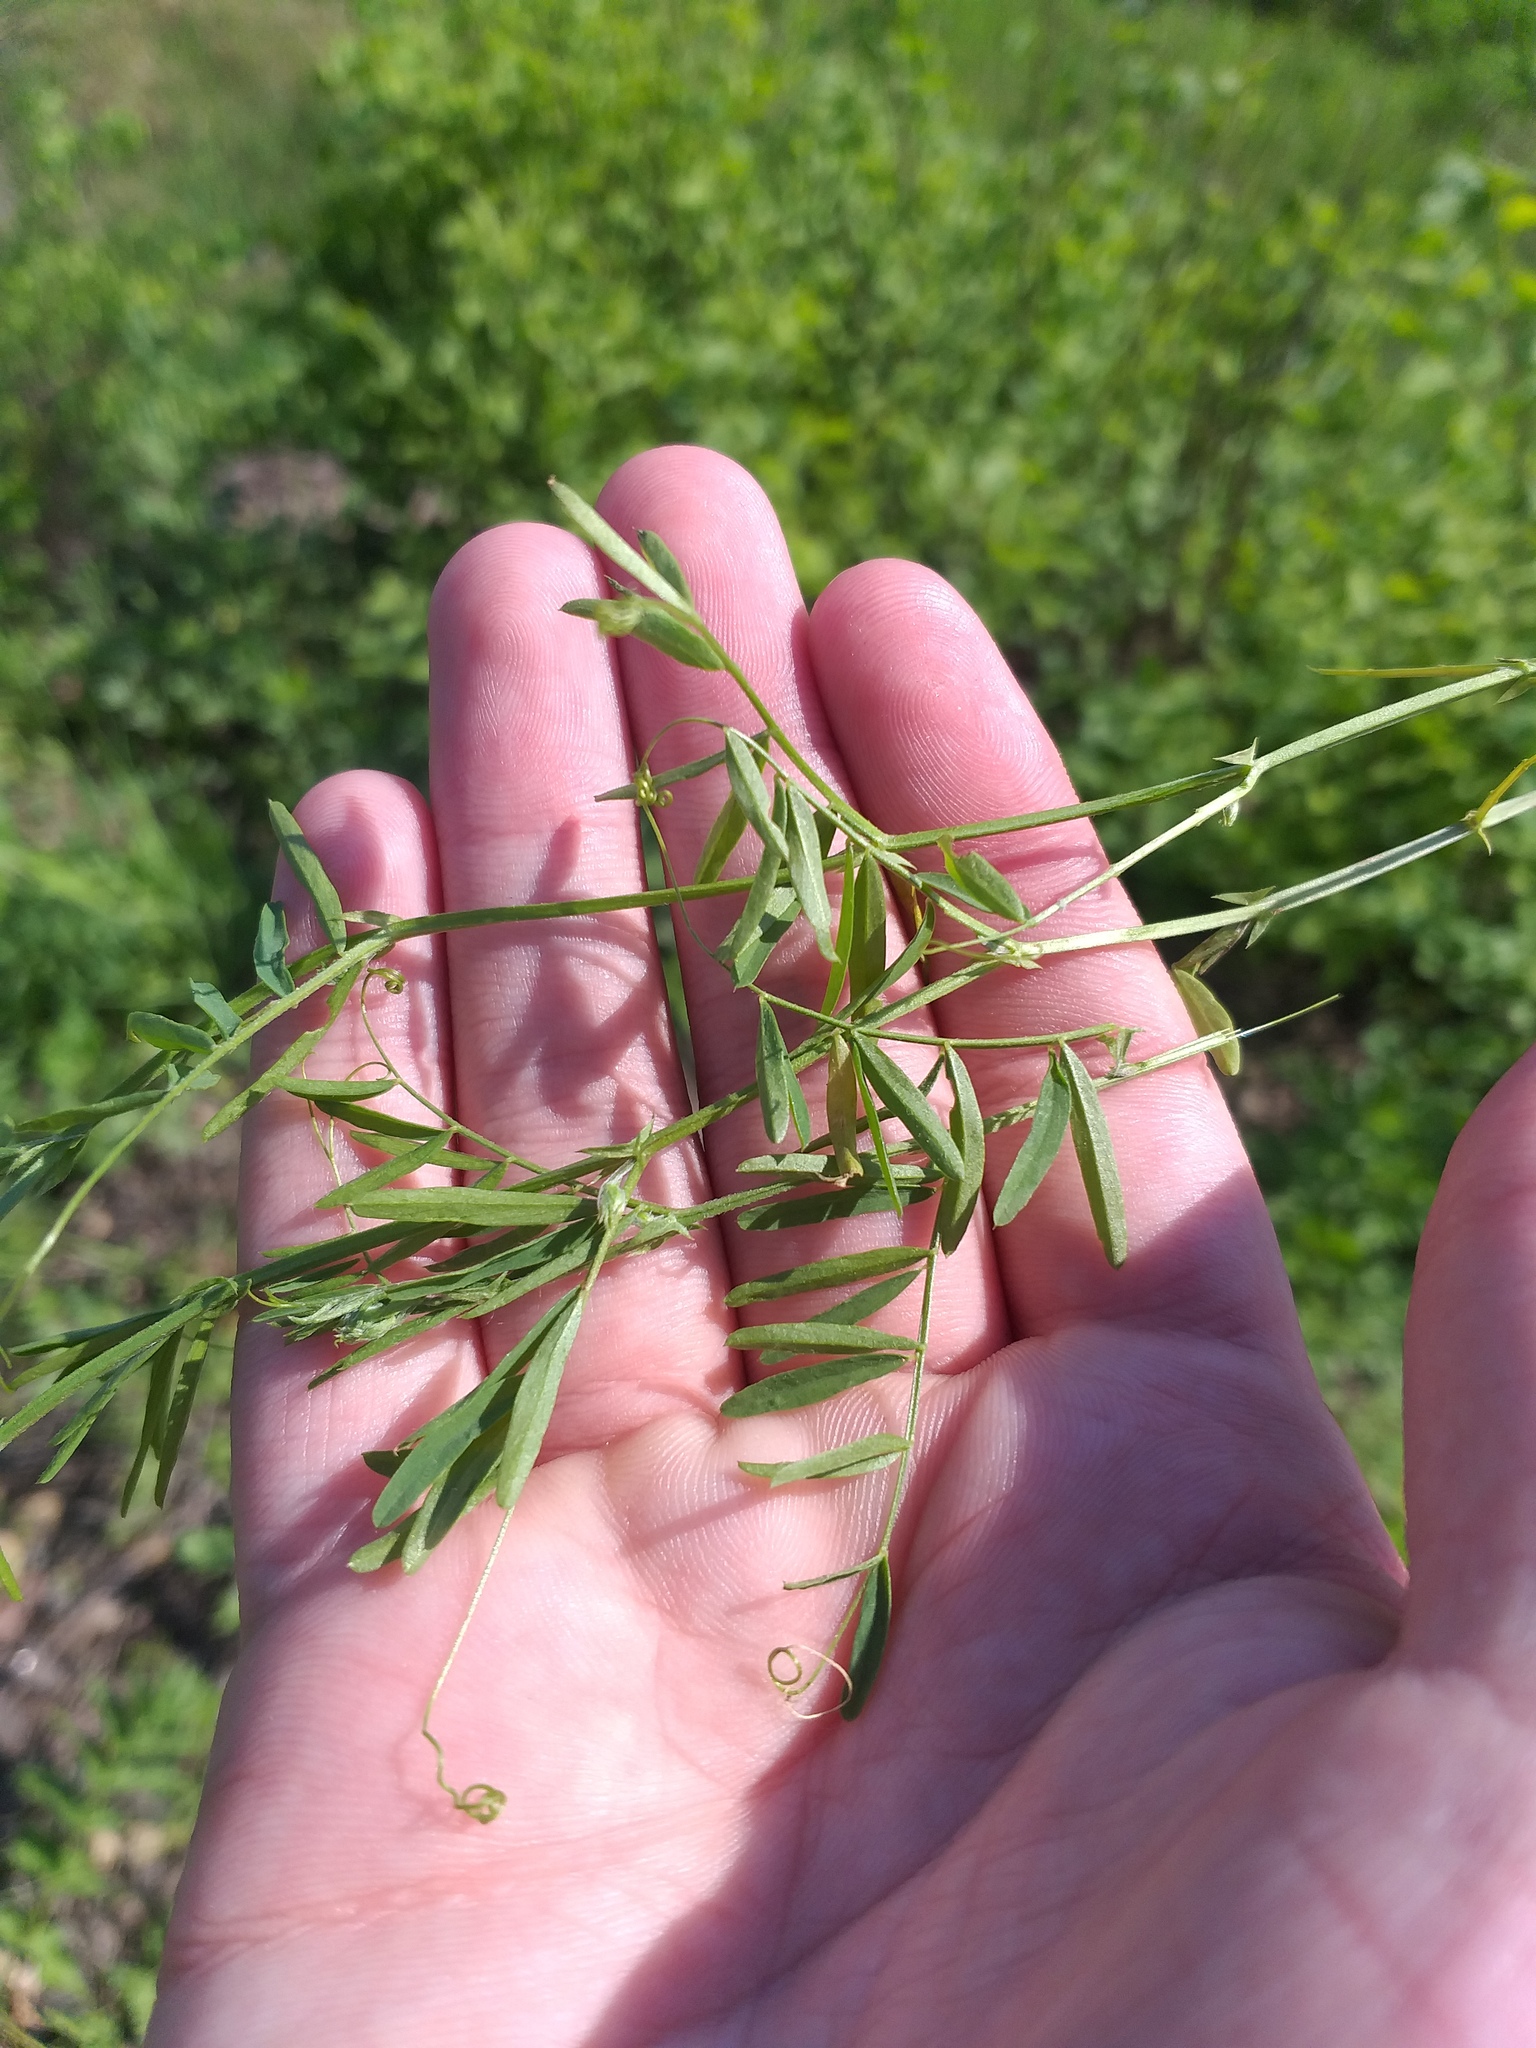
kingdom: Plantae
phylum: Tracheophyta
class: Magnoliopsida
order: Fabales
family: Fabaceae
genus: Vicia
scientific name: Vicia tetrasperma
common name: Smooth tare
